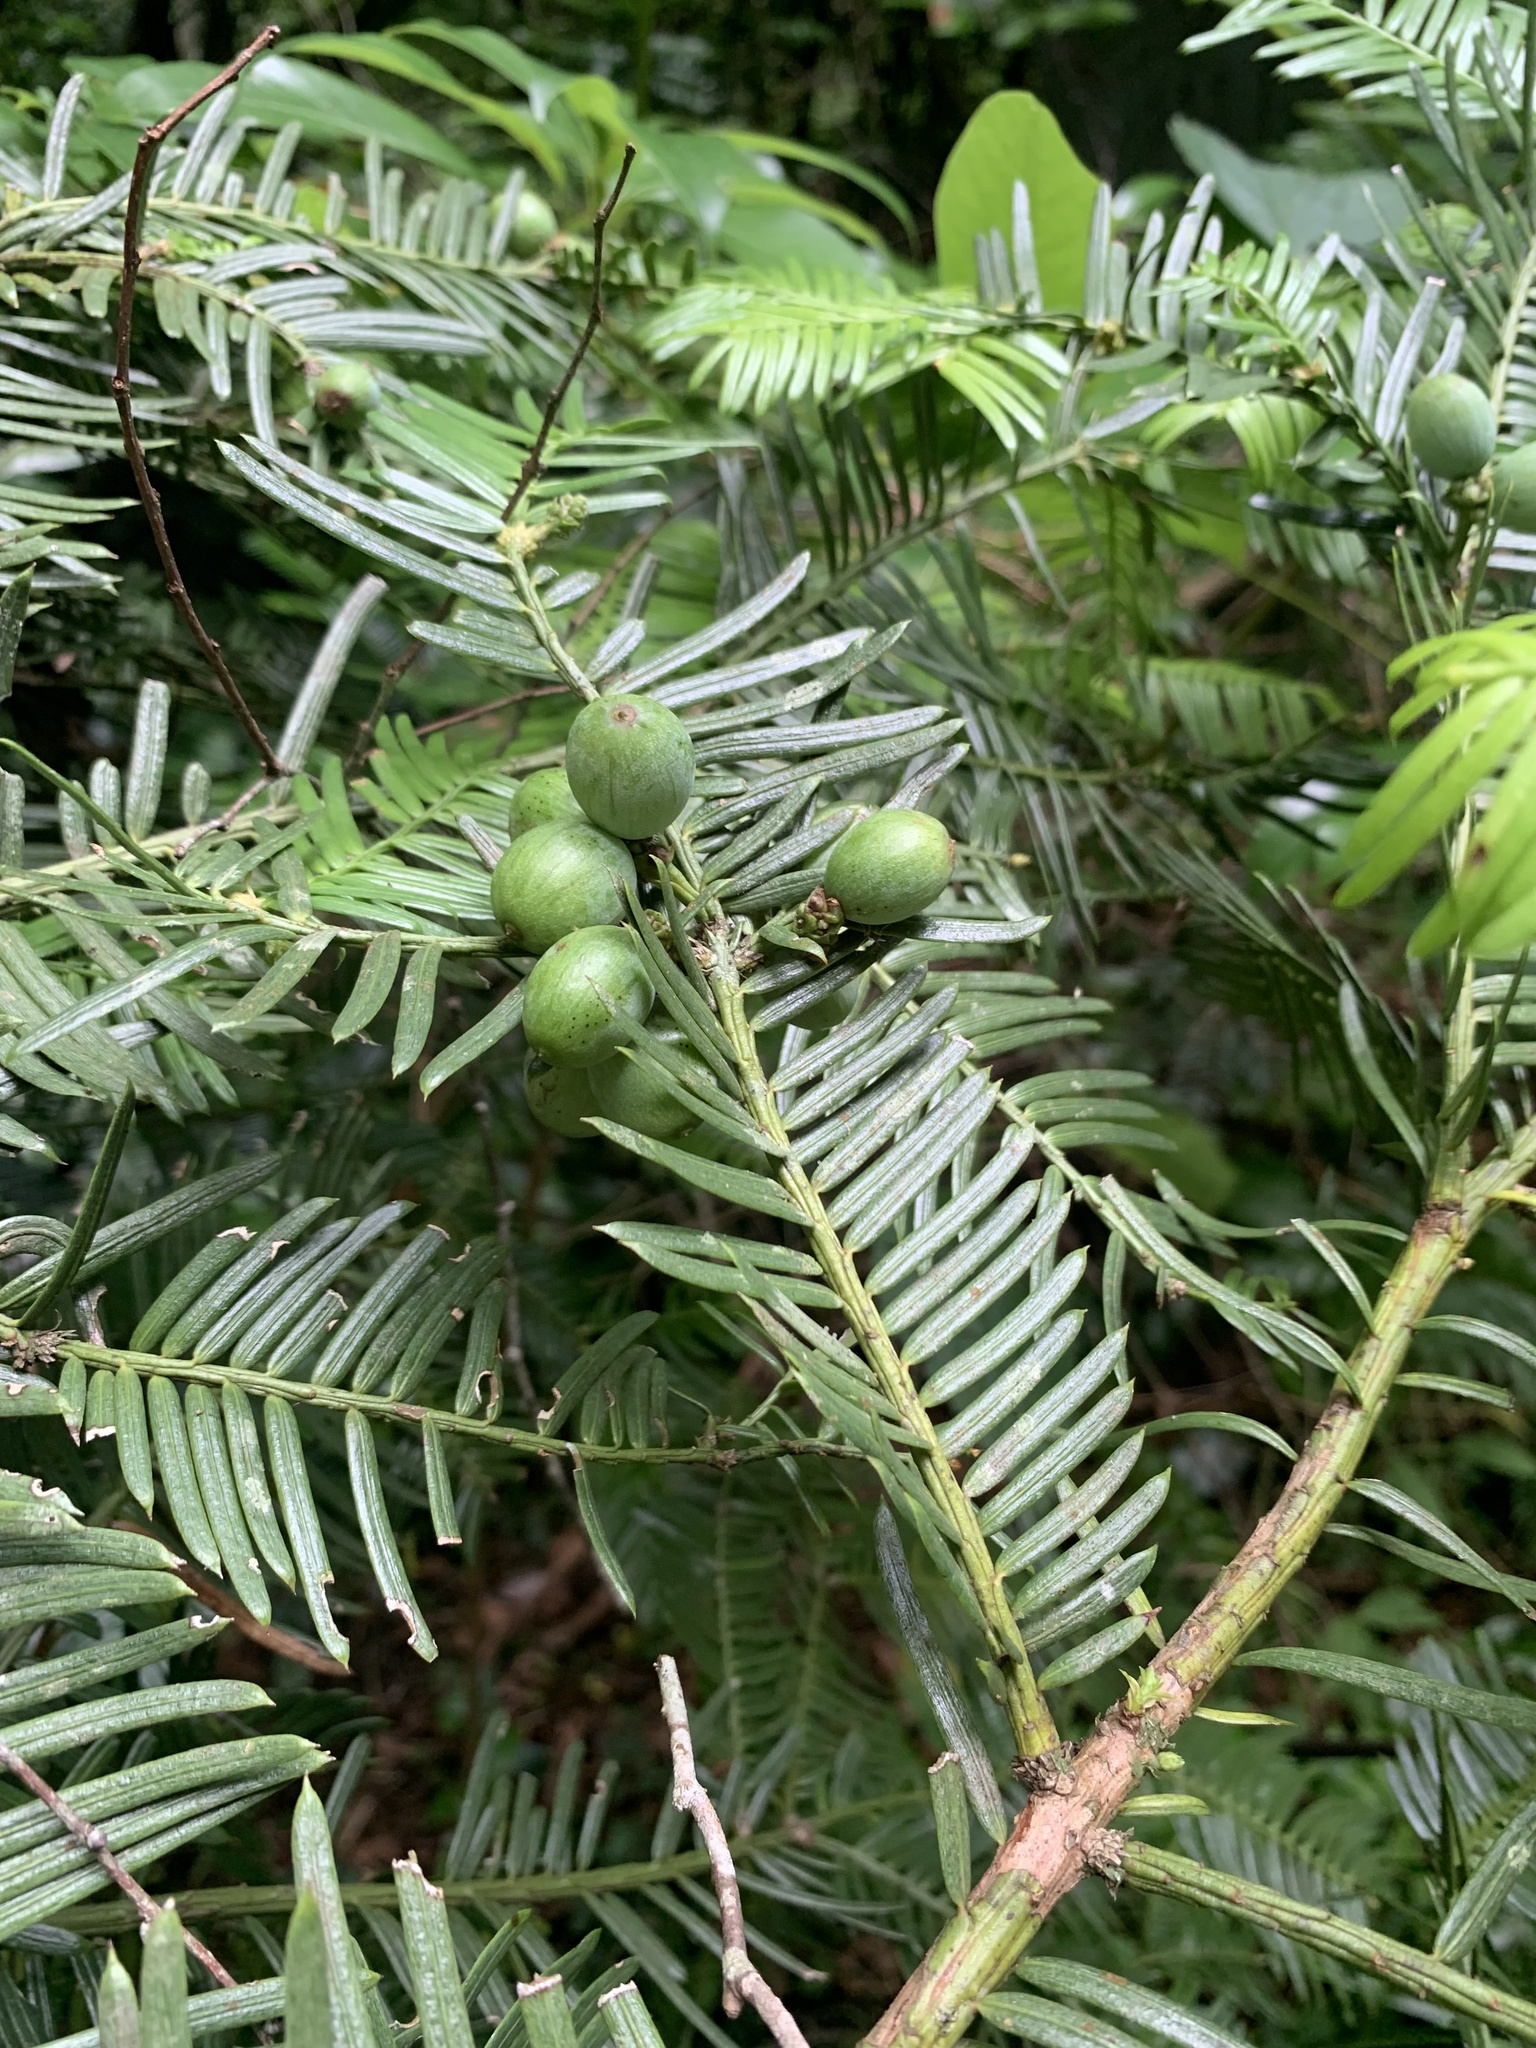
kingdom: Plantae
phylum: Tracheophyta
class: Pinopsida
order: Pinales
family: Cephalotaxaceae
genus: Cephalotaxus
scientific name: Cephalotaxus harringtonia
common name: Japanese plum-yew
